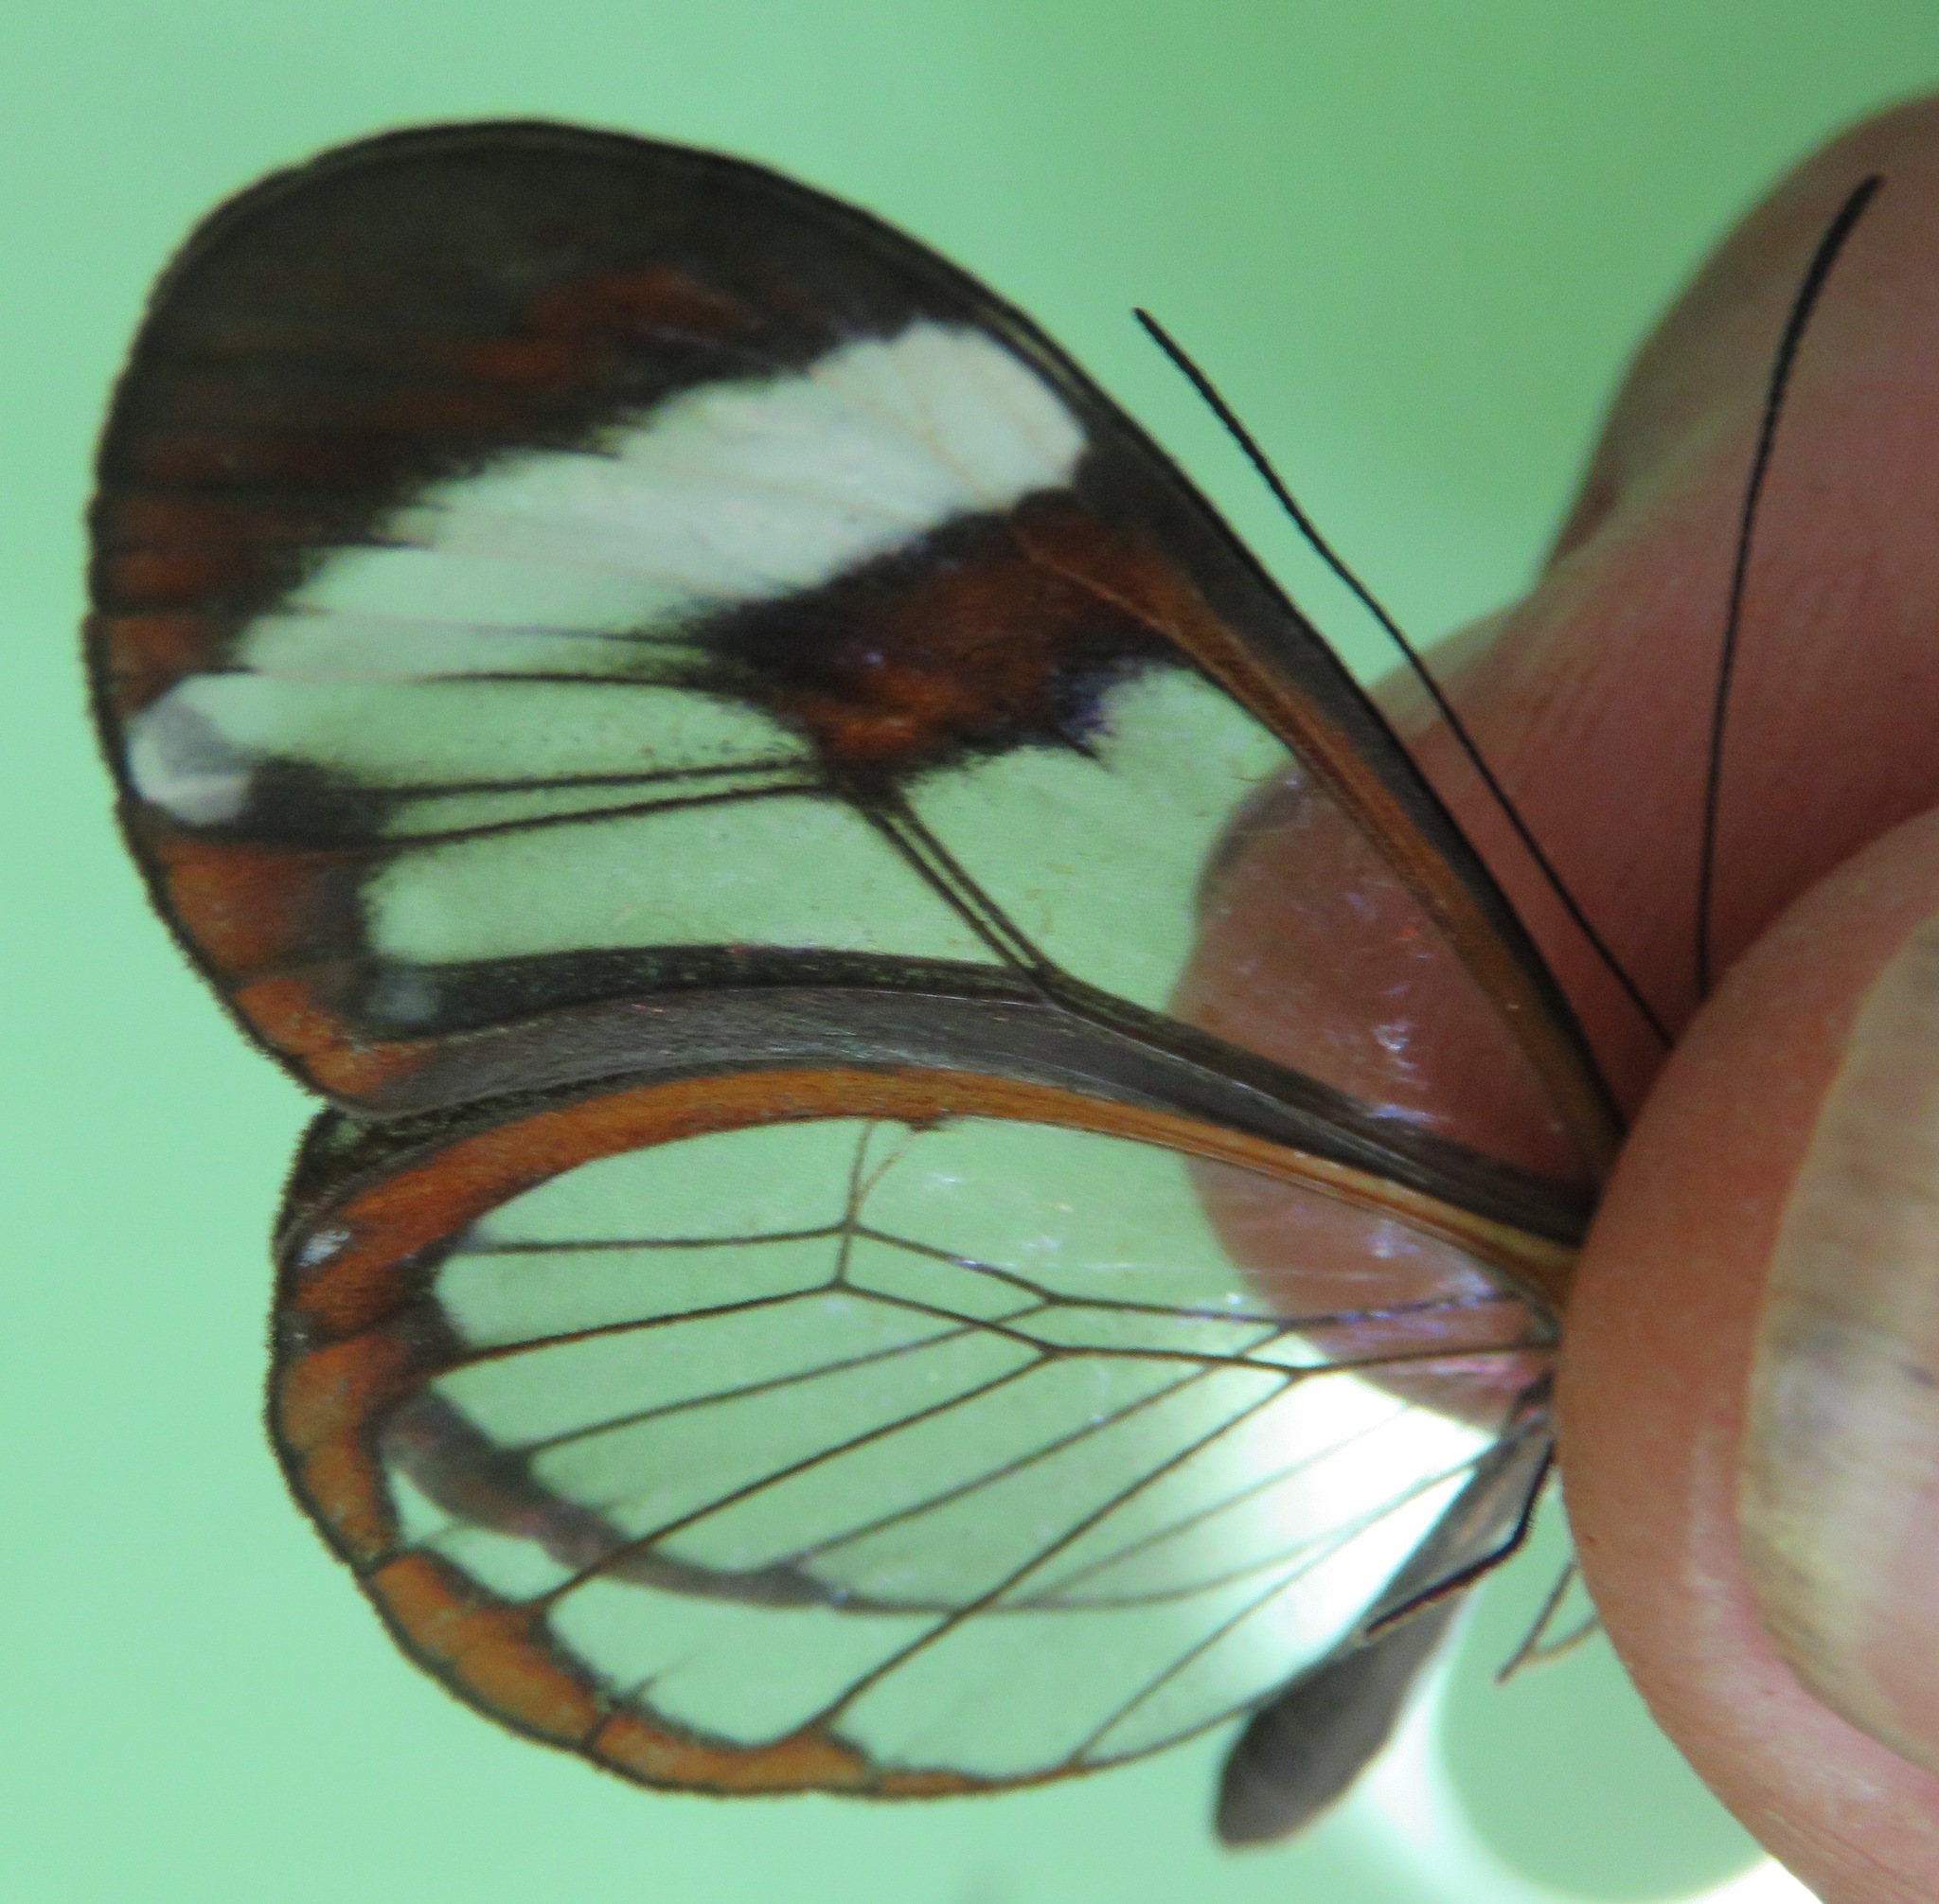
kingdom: Animalia
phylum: Arthropoda
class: Insecta
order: Lepidoptera
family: Nymphalidae
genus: Greta
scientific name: Greta morgane
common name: Thick-tipped greta
